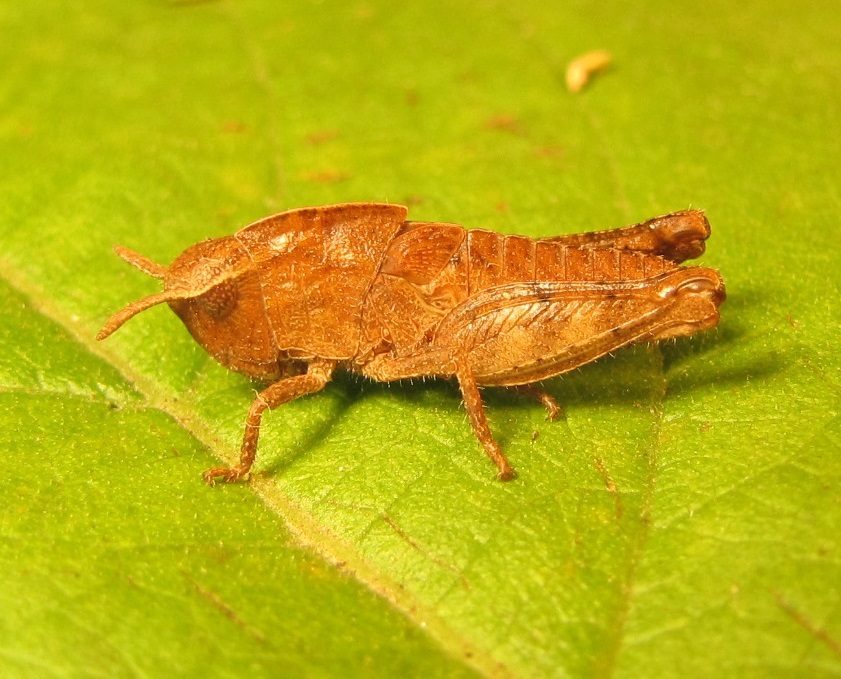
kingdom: Animalia
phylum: Arthropoda
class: Insecta
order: Orthoptera
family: Acrididae
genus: Chortophaga
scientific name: Chortophaga viridifasciata
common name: Green-striped grasshopper
